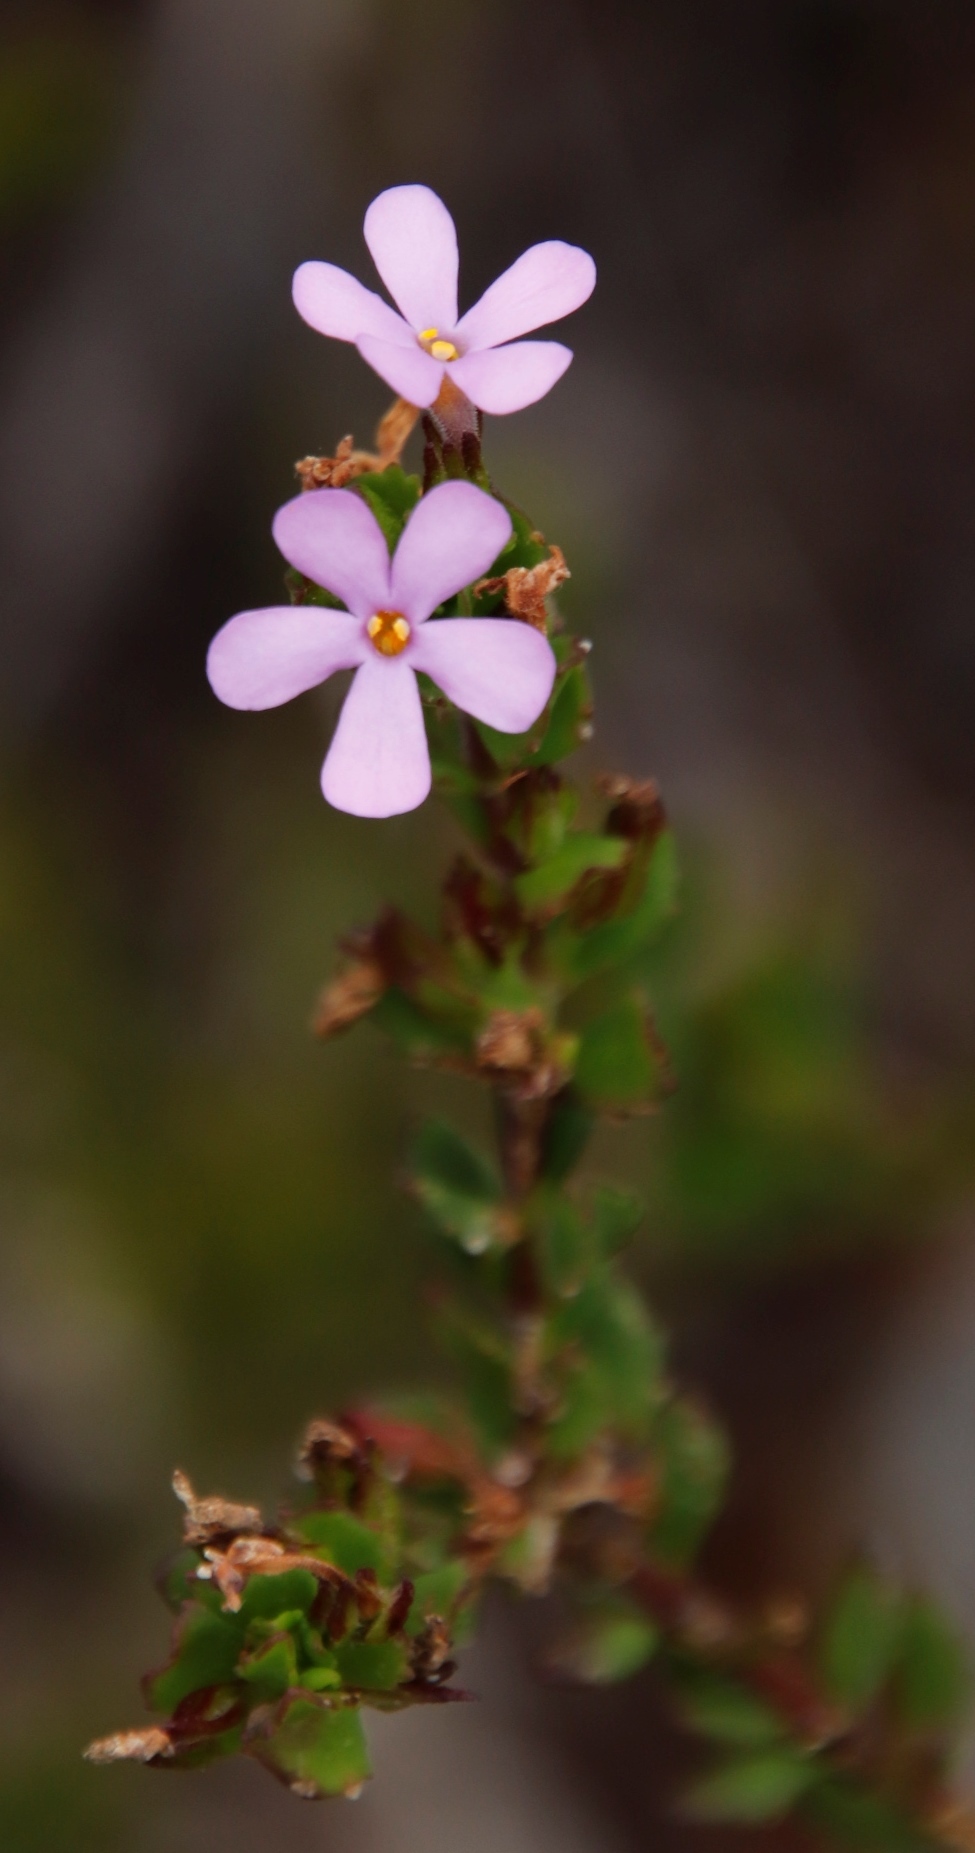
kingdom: Plantae
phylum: Tracheophyta
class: Magnoliopsida
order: Lamiales
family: Scrophulariaceae
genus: Chaenostoma
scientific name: Chaenostoma subspicata
